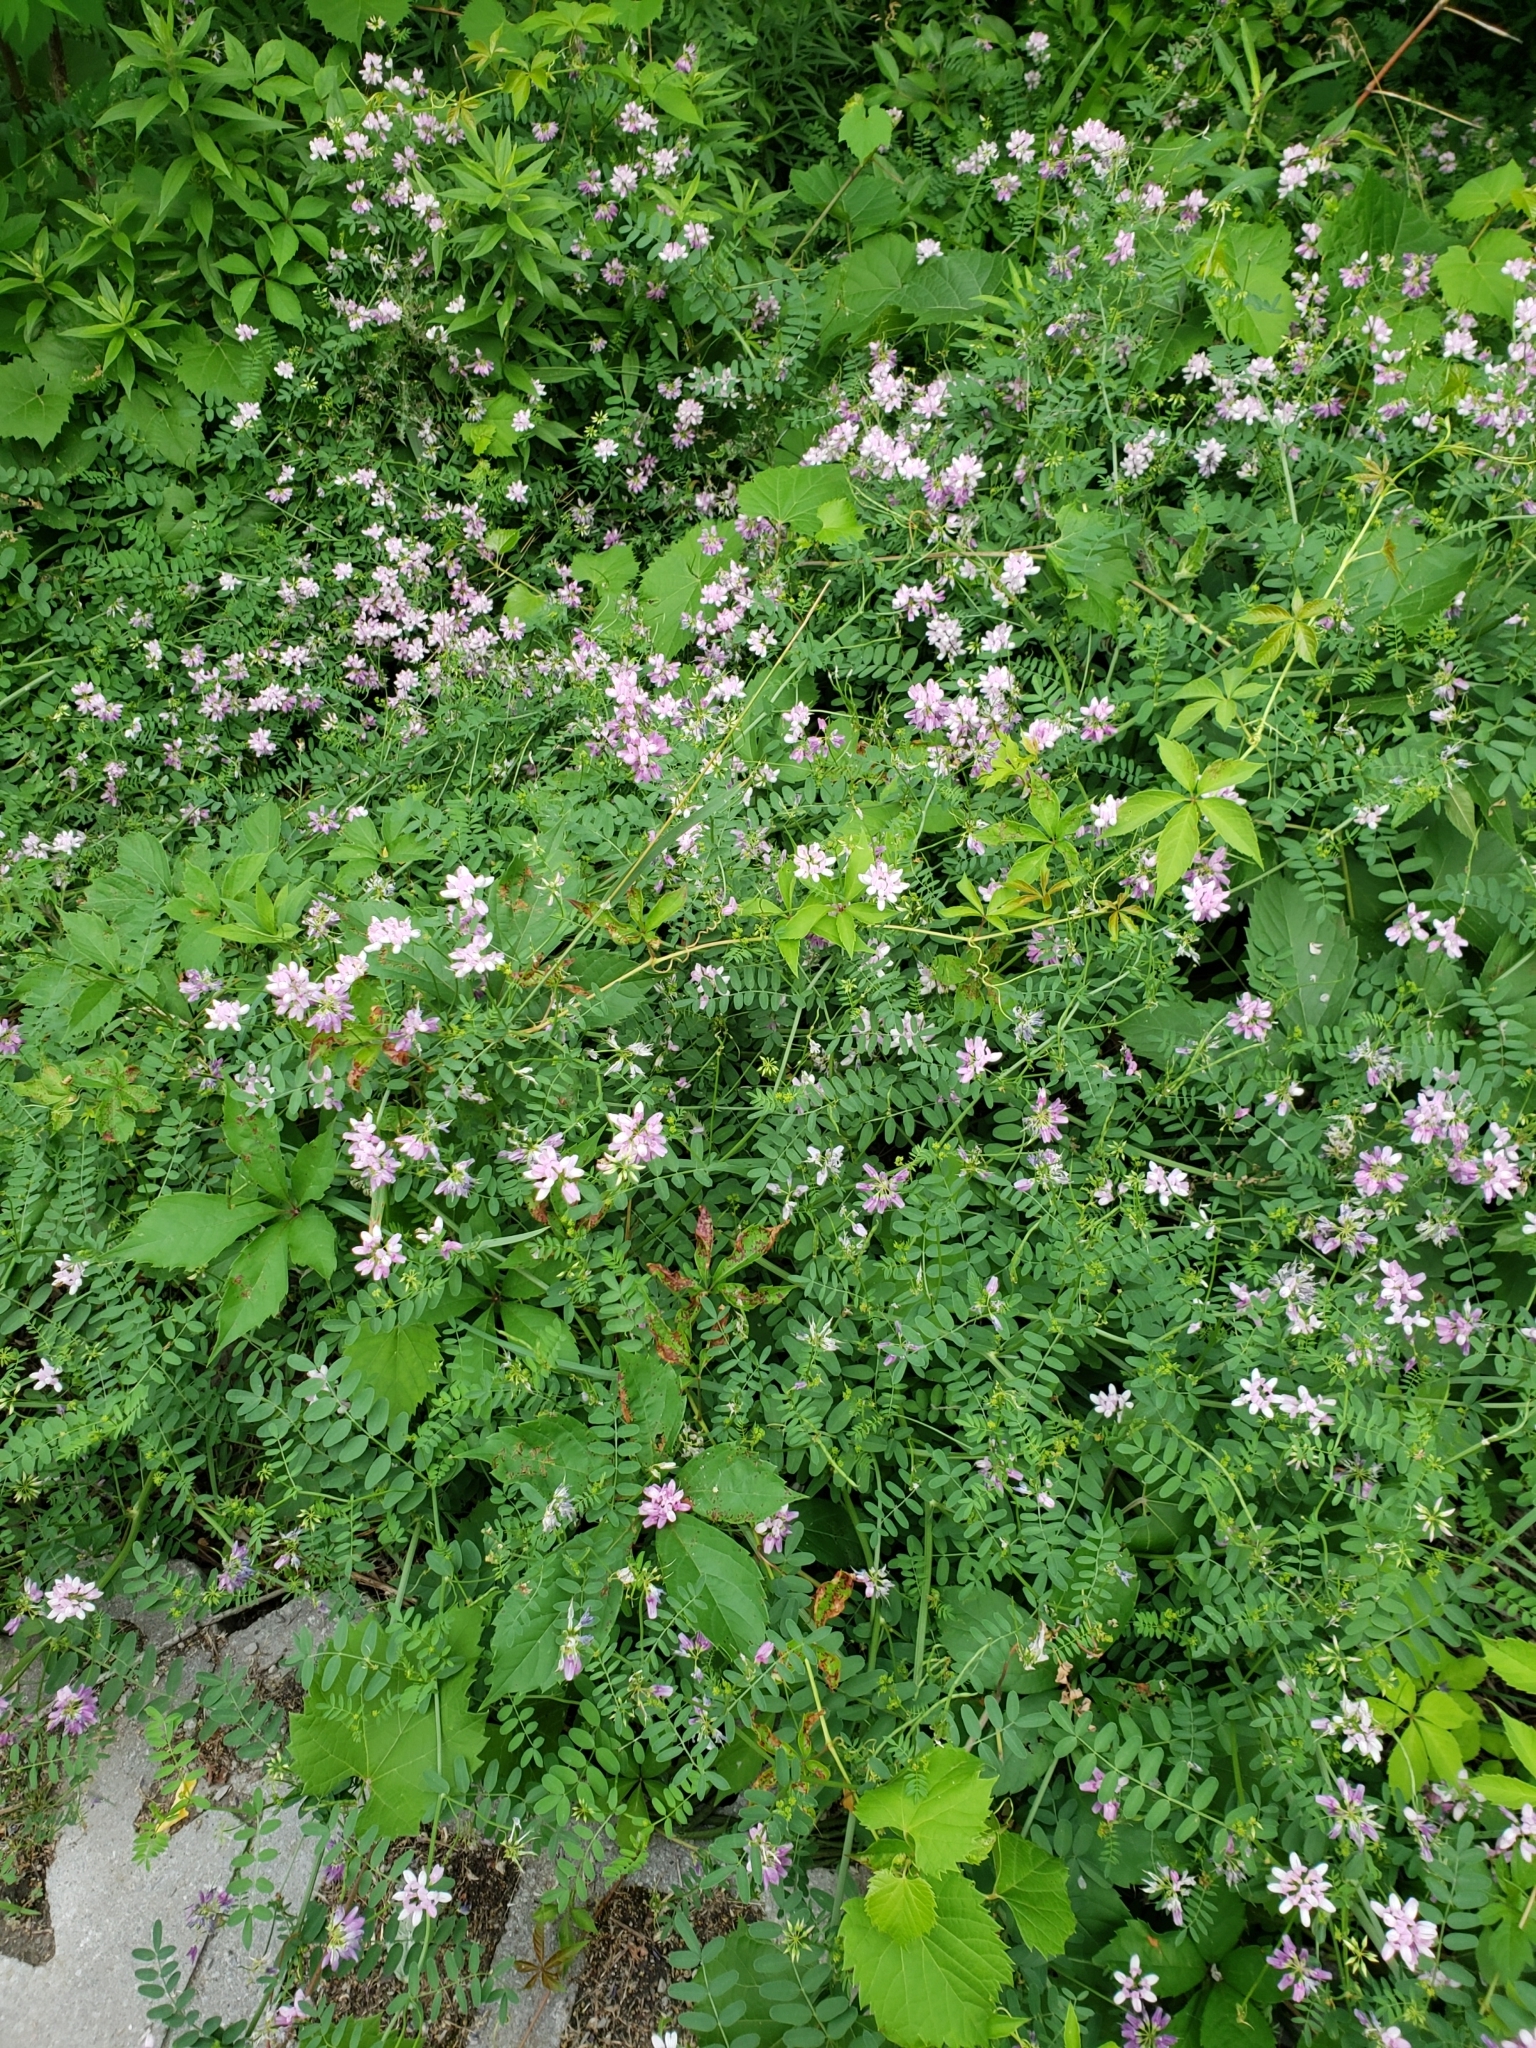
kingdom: Plantae
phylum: Tracheophyta
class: Magnoliopsida
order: Fabales
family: Fabaceae
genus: Coronilla
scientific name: Coronilla varia
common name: Crownvetch
